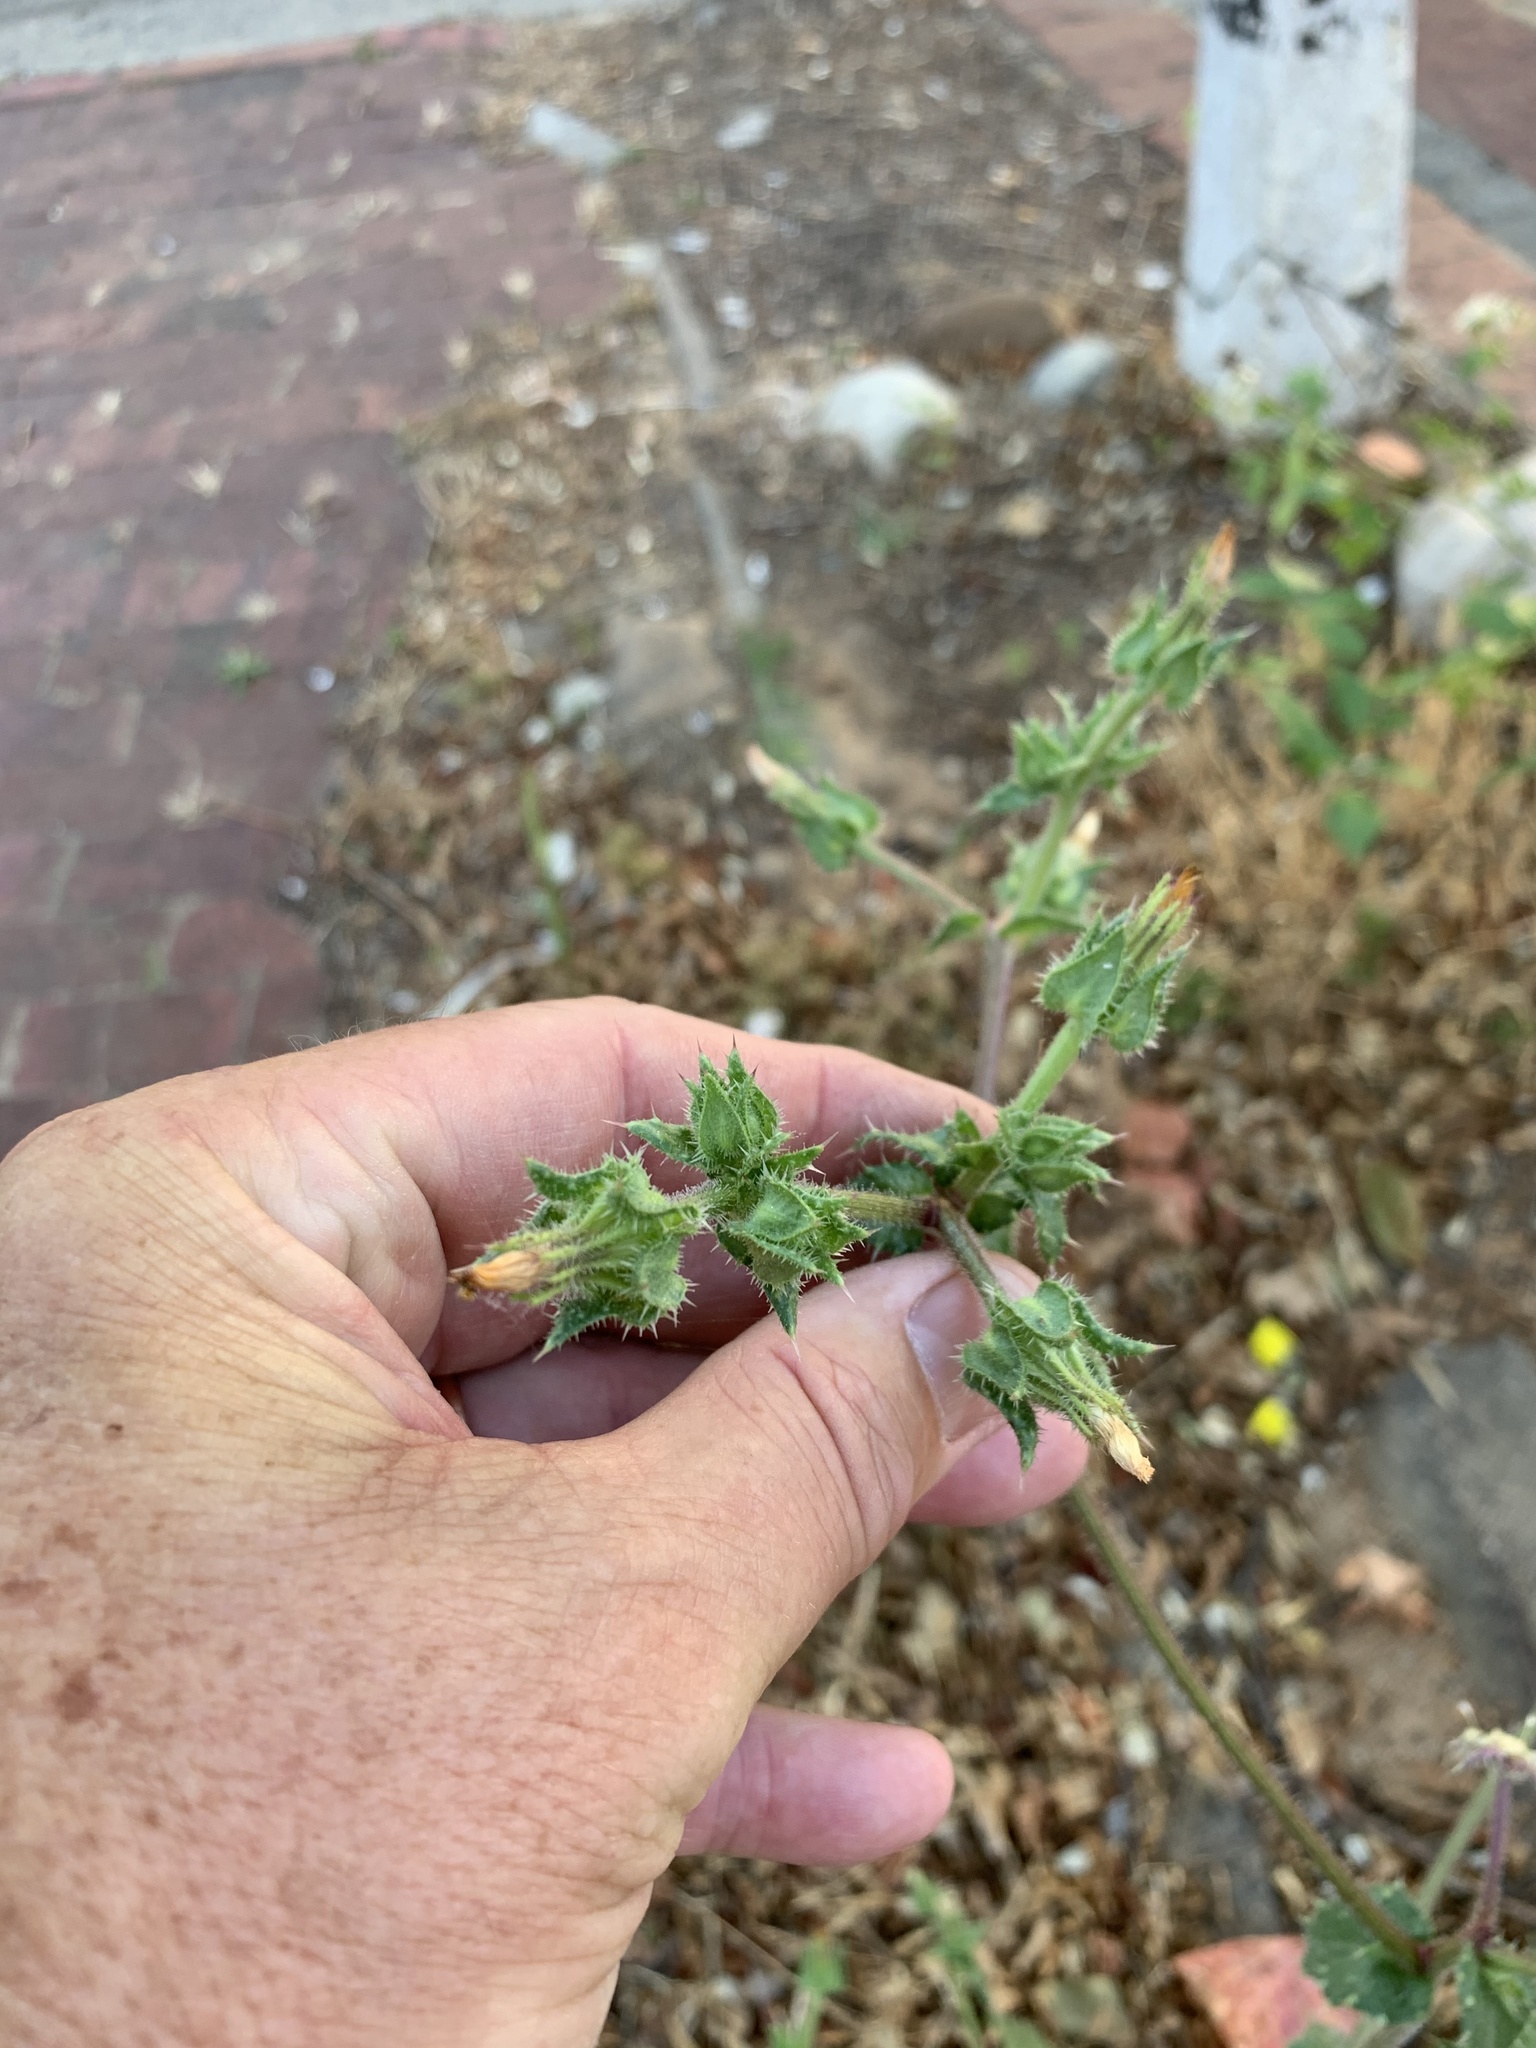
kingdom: Plantae
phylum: Tracheophyta
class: Magnoliopsida
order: Asterales
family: Asteraceae
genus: Helminthotheca
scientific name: Helminthotheca echioides
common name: Ox-tongue
